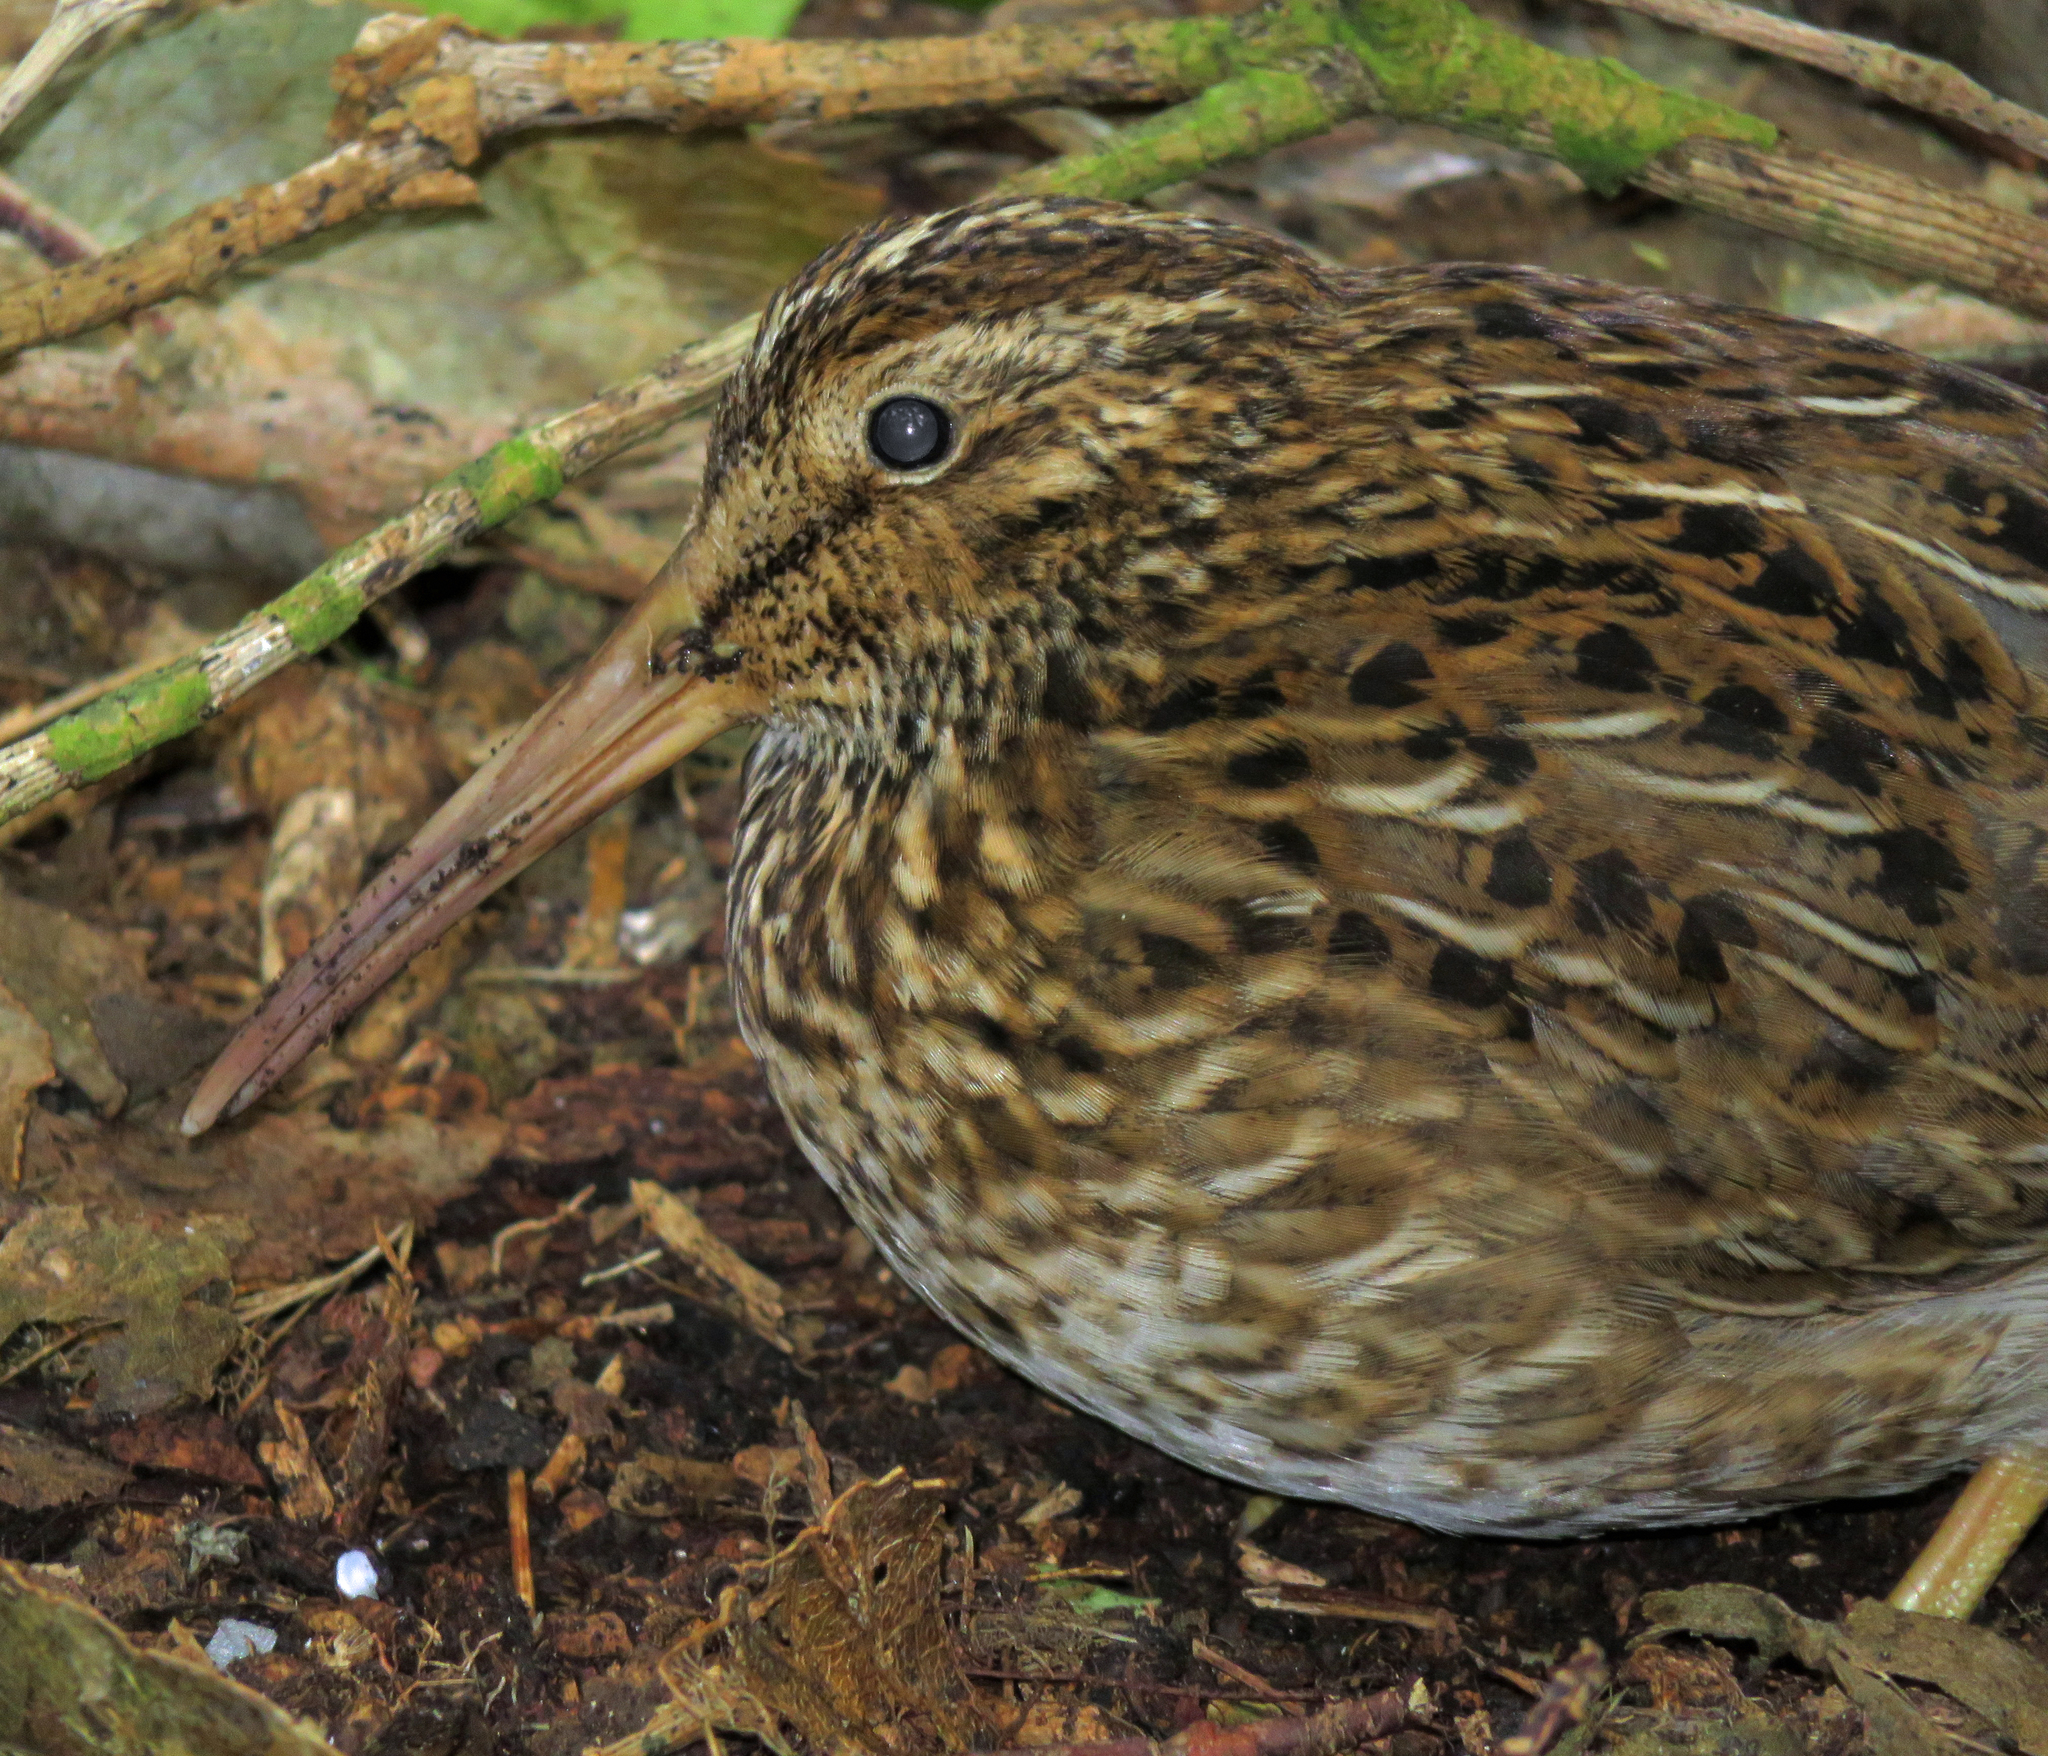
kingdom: Animalia
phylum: Chordata
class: Aves
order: Charadriiformes
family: Scolopacidae
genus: Coenocorypha
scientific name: Coenocorypha pusilla
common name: Chatham snipe
